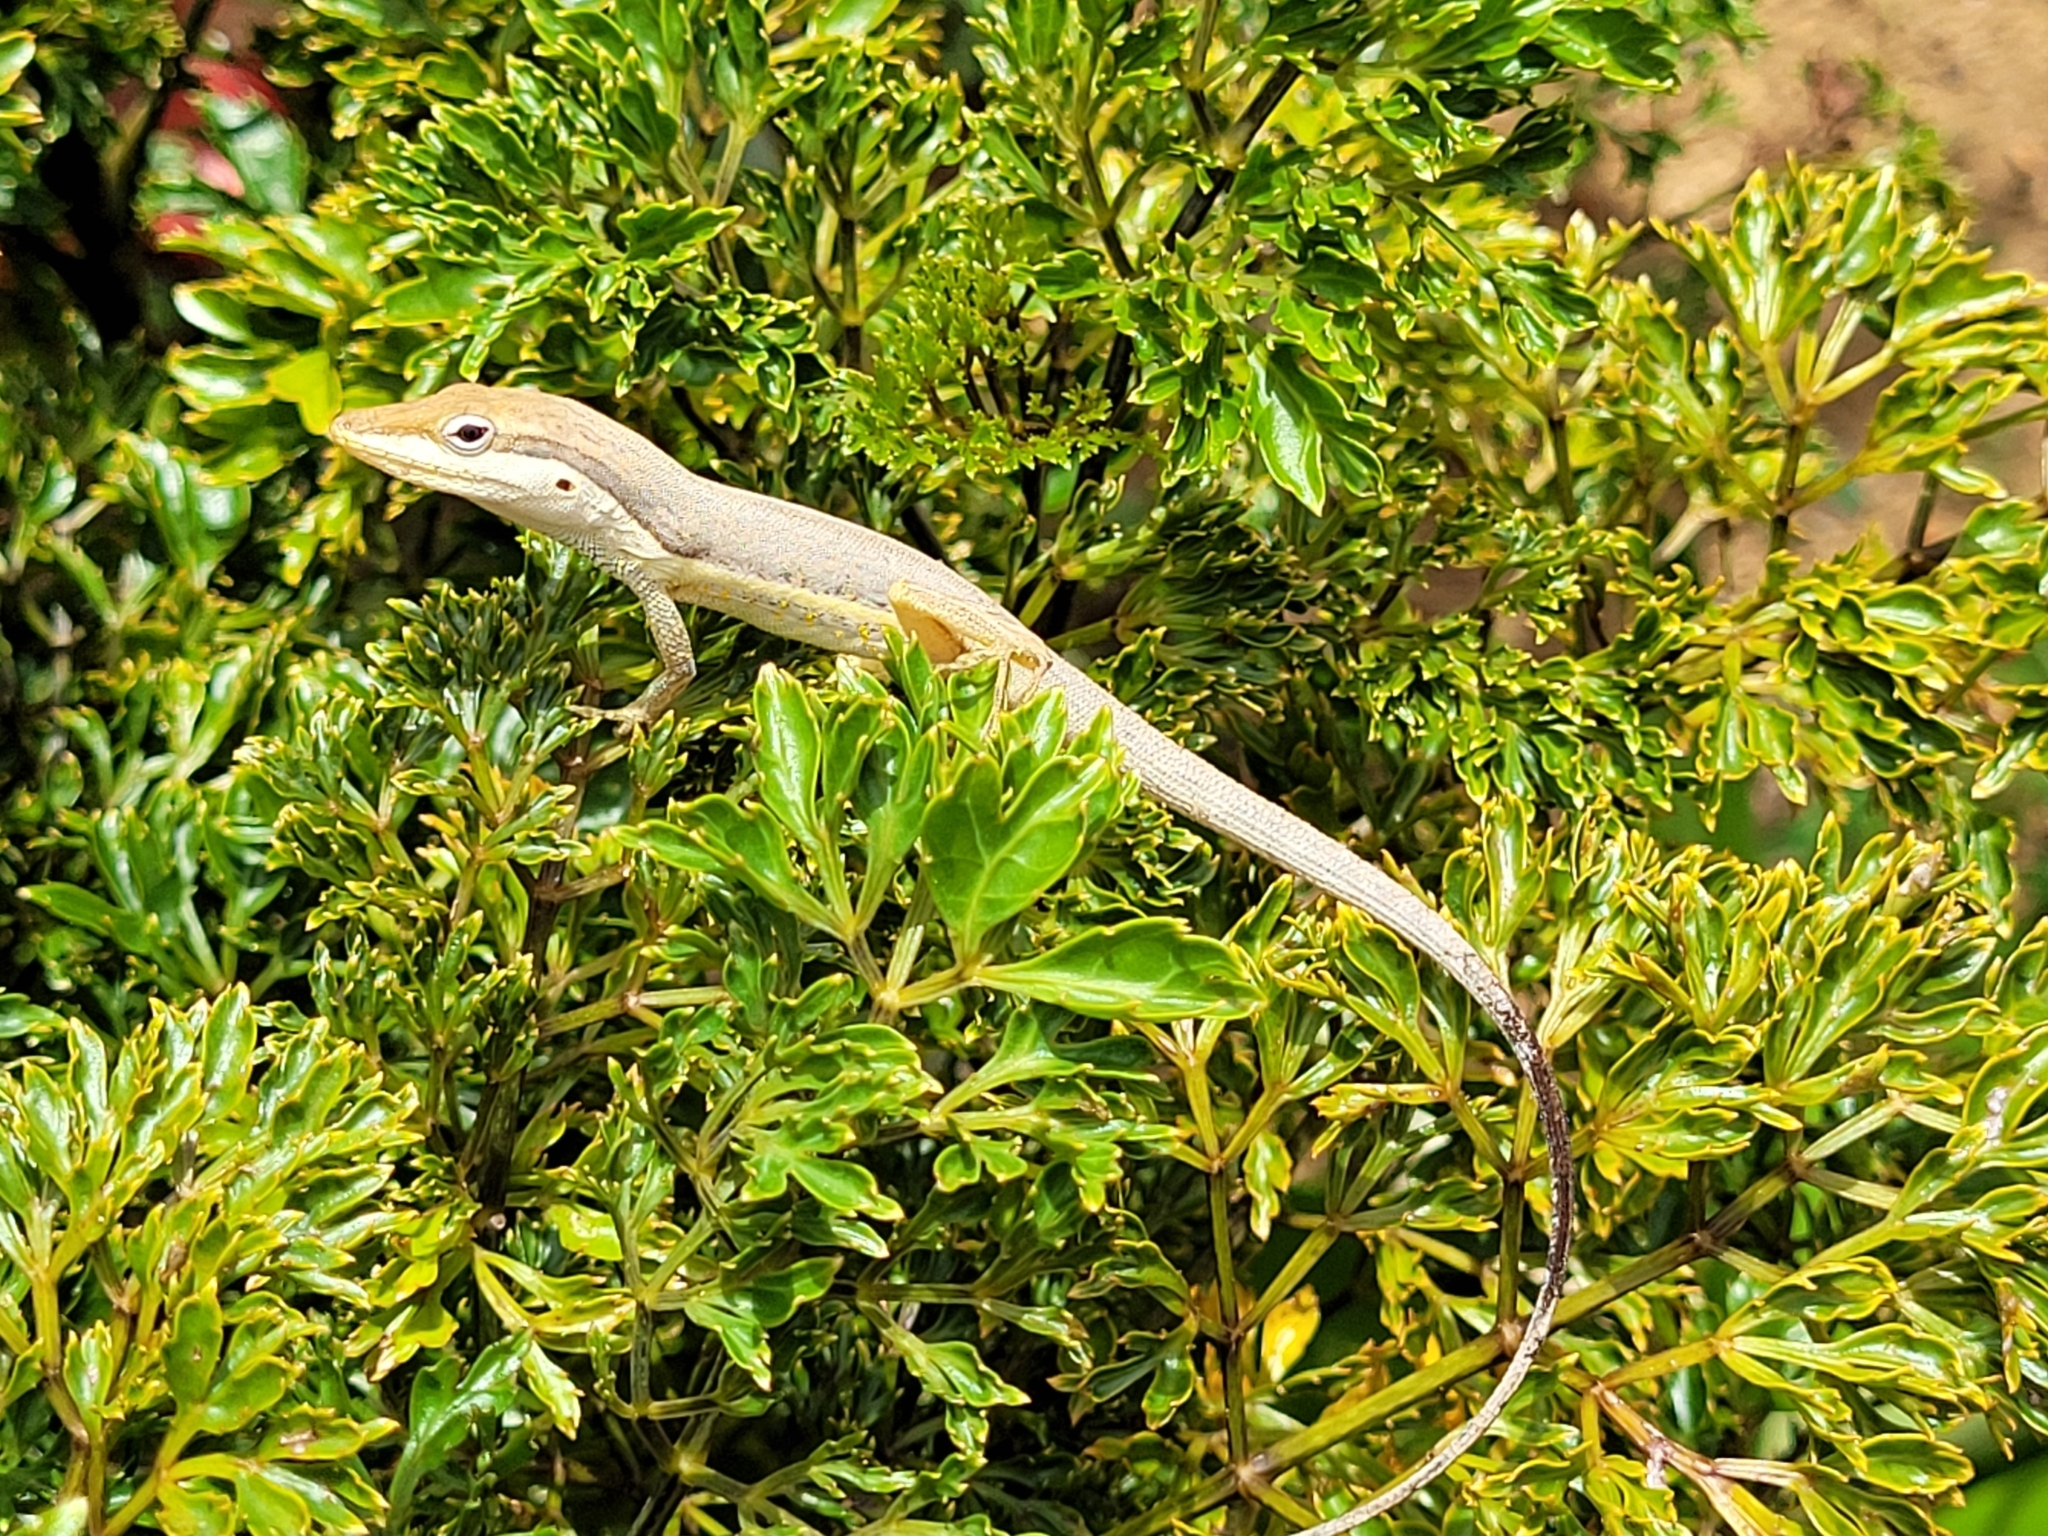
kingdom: Animalia
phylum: Chordata
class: Squamata
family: Dactyloidae
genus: Anolis
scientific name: Anolis pulchellus
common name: Puerto rican anole
